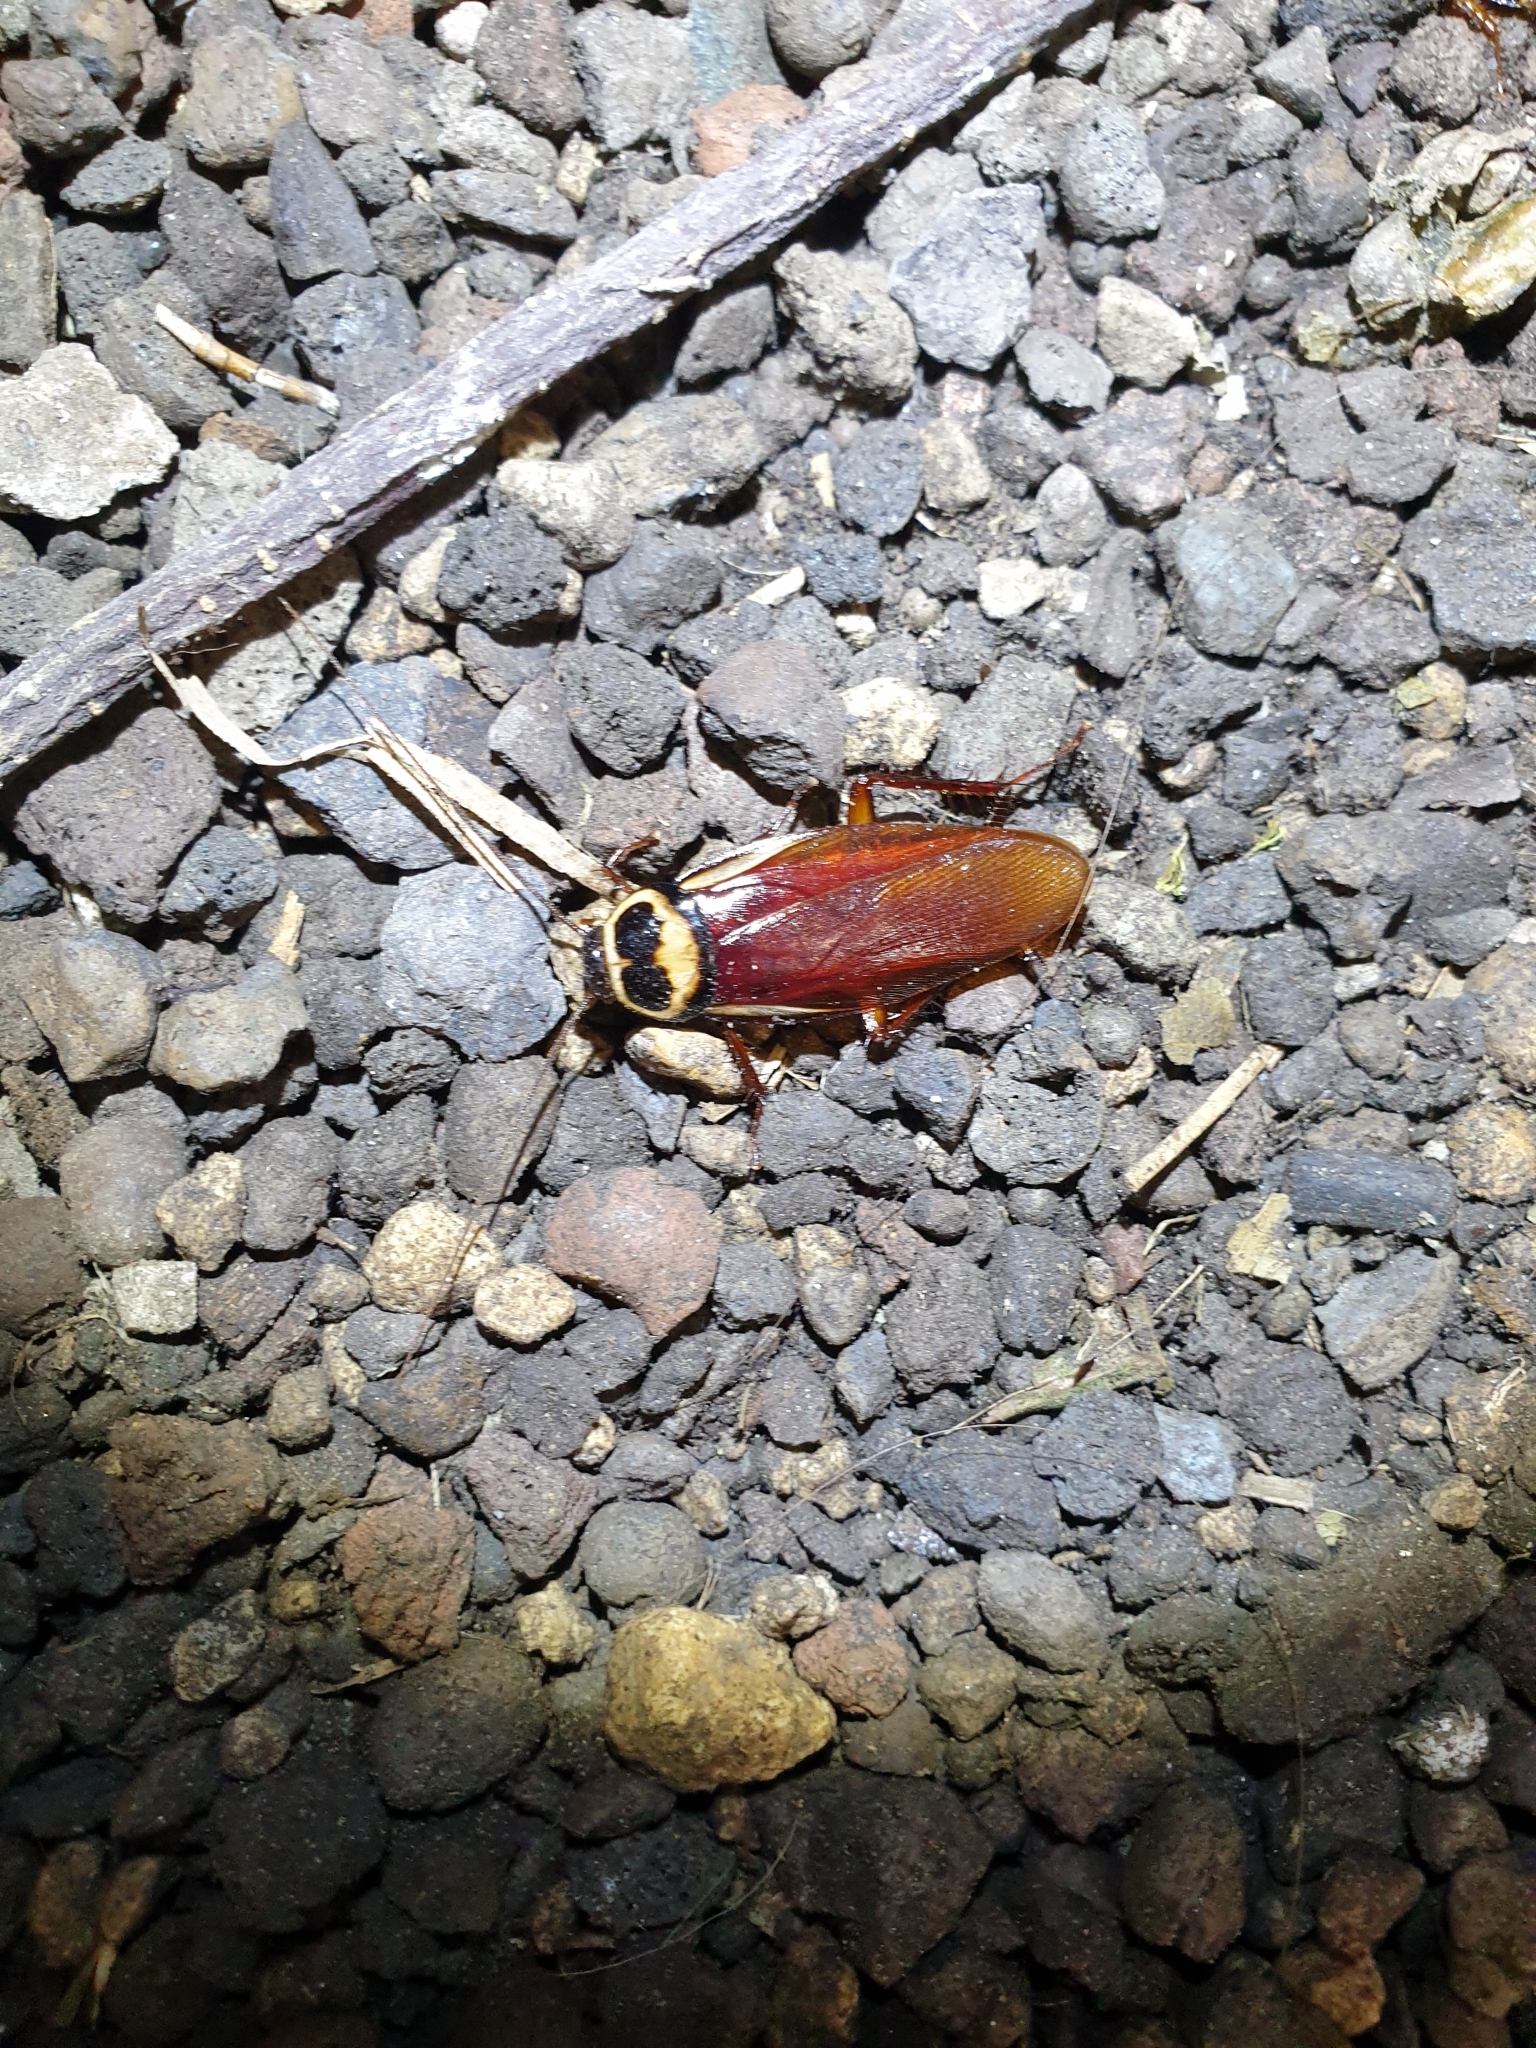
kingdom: Animalia
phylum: Arthropoda
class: Insecta
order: Blattodea
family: Blattidae
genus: Periplaneta
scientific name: Periplaneta australasiae
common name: Australian cockroach
